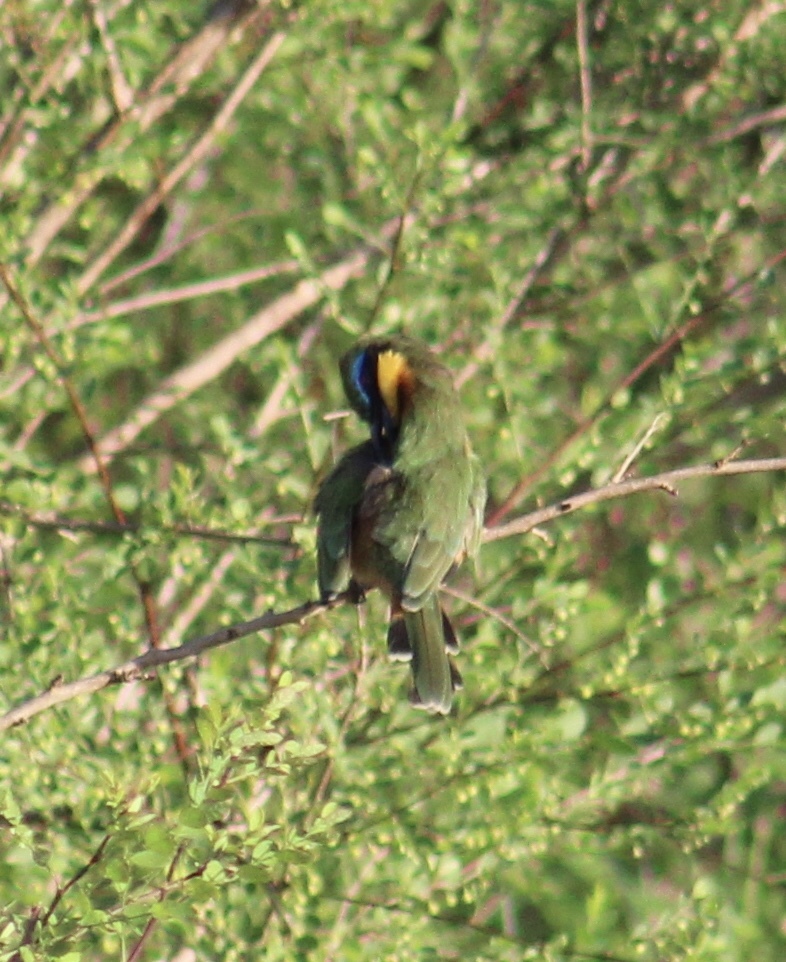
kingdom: Animalia
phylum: Chordata
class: Aves
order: Coraciiformes
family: Meropidae
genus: Merops
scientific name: Merops pusillus
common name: Little bee-eater
